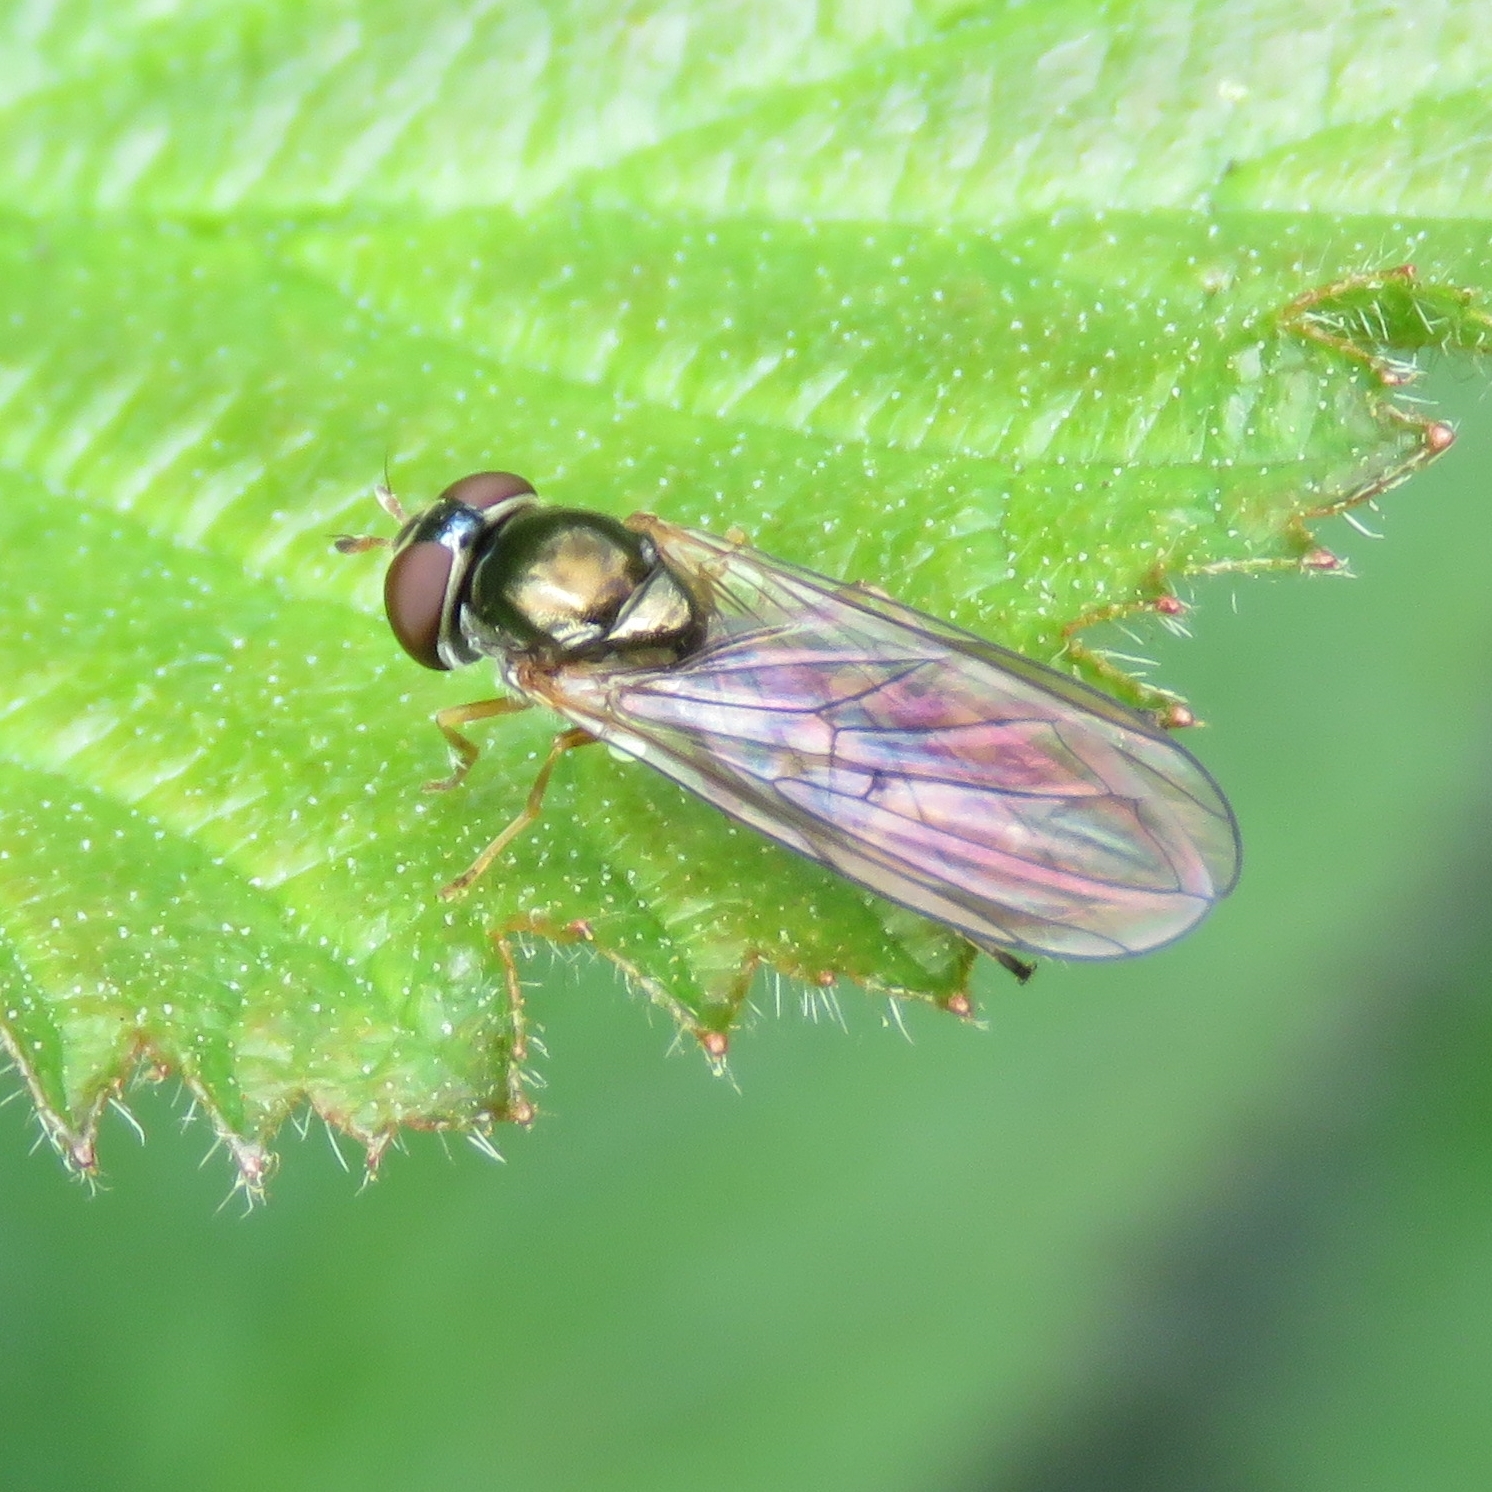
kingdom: Animalia
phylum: Arthropoda
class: Insecta
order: Diptera
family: Syrphidae
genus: Melanostoma
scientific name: Melanostoma scalare
